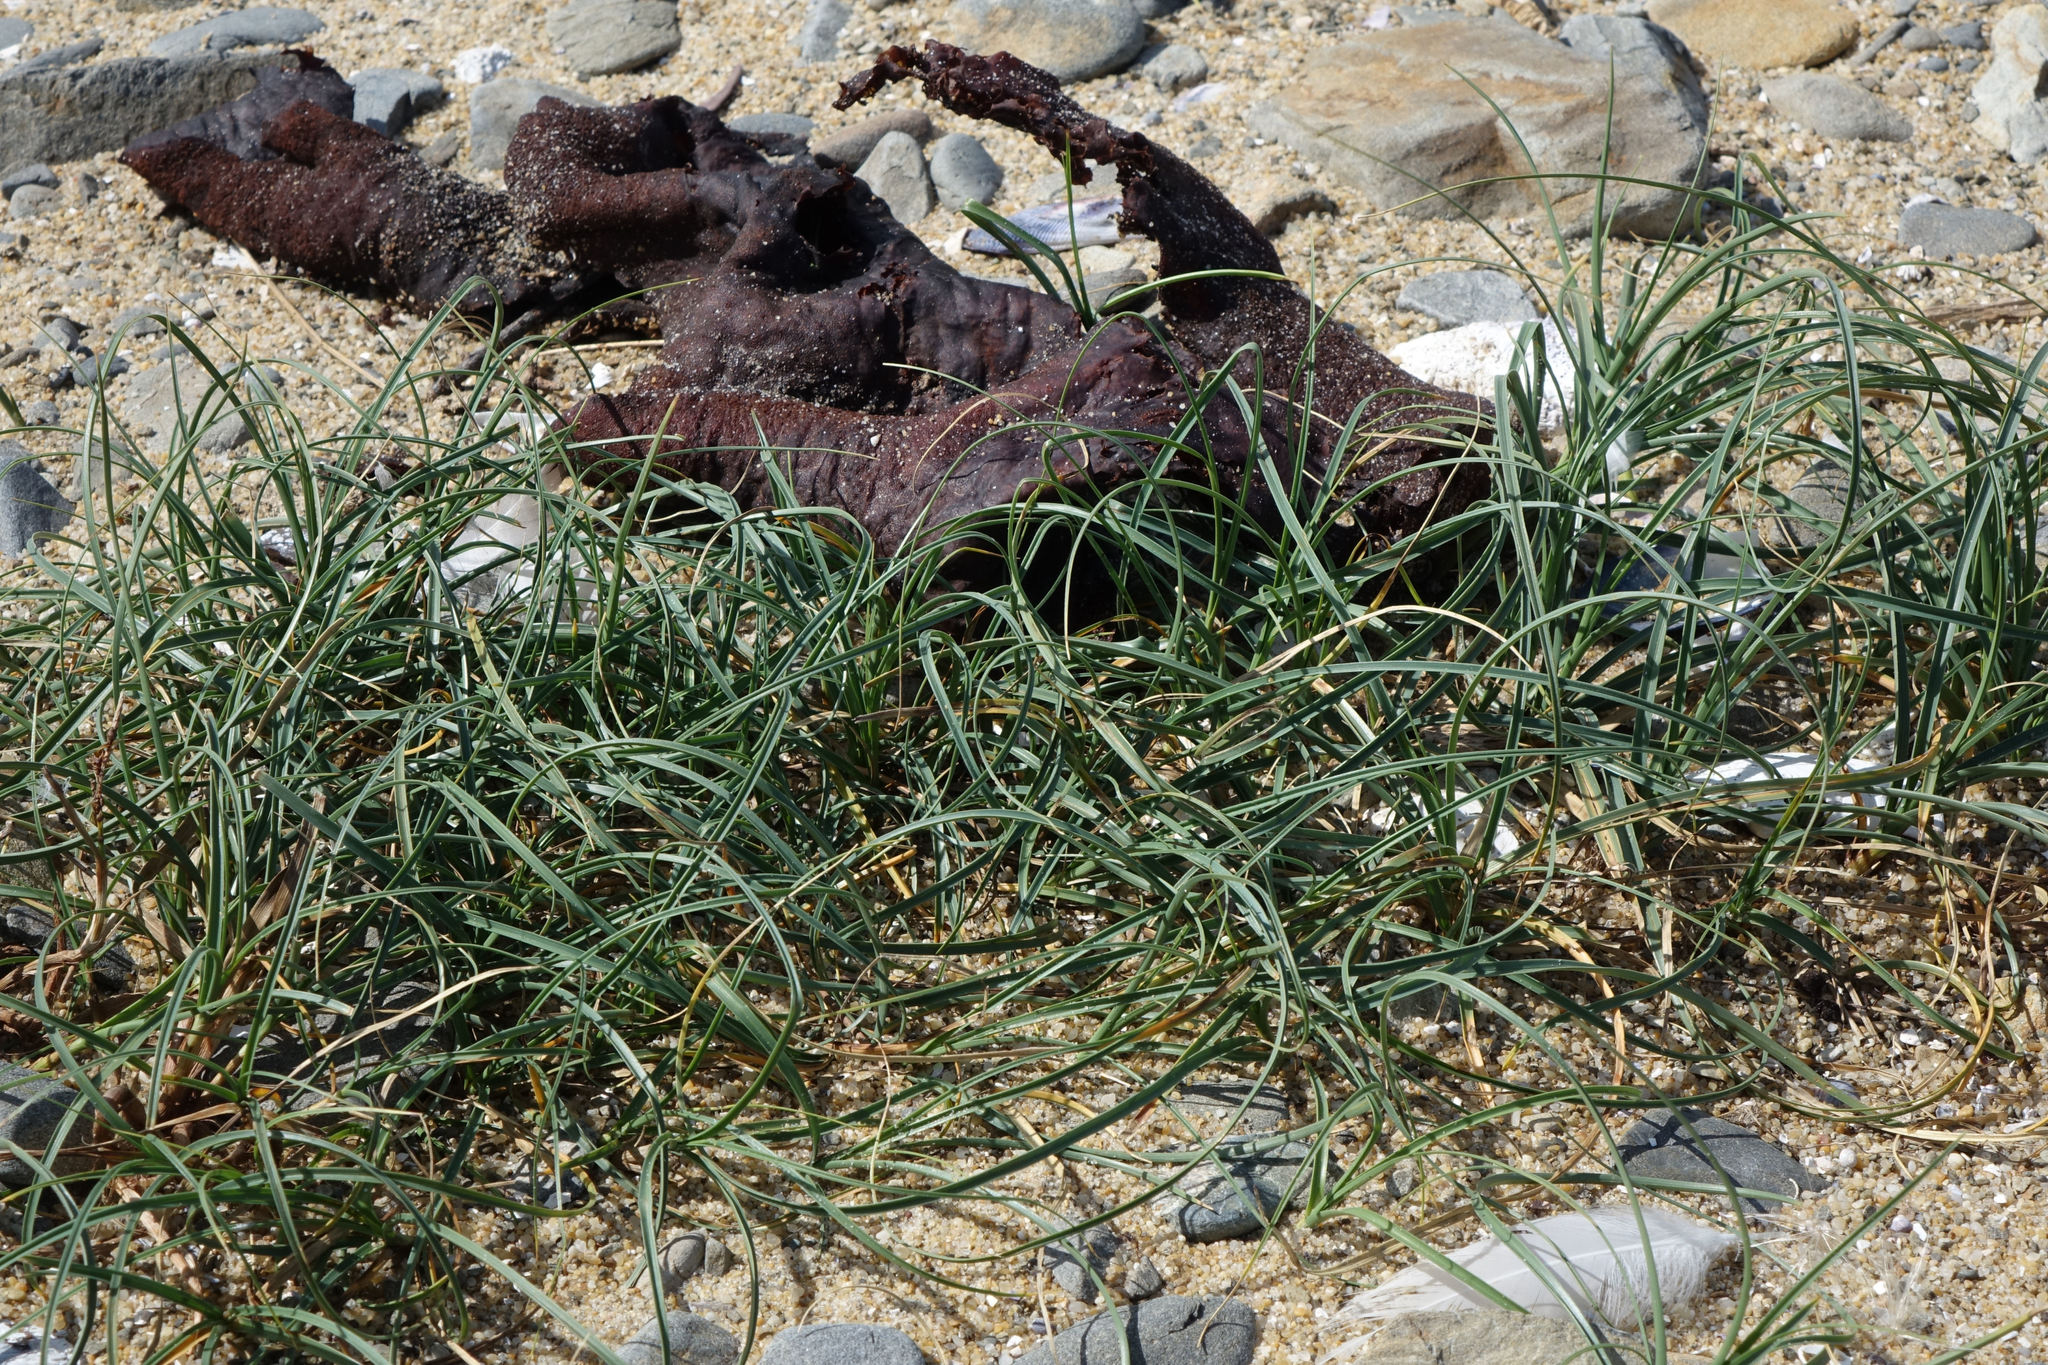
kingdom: Plantae
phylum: Tracheophyta
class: Liliopsida
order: Poales
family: Cyperaceae
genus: Carex
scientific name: Carex pumila
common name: Dwarf sedge
